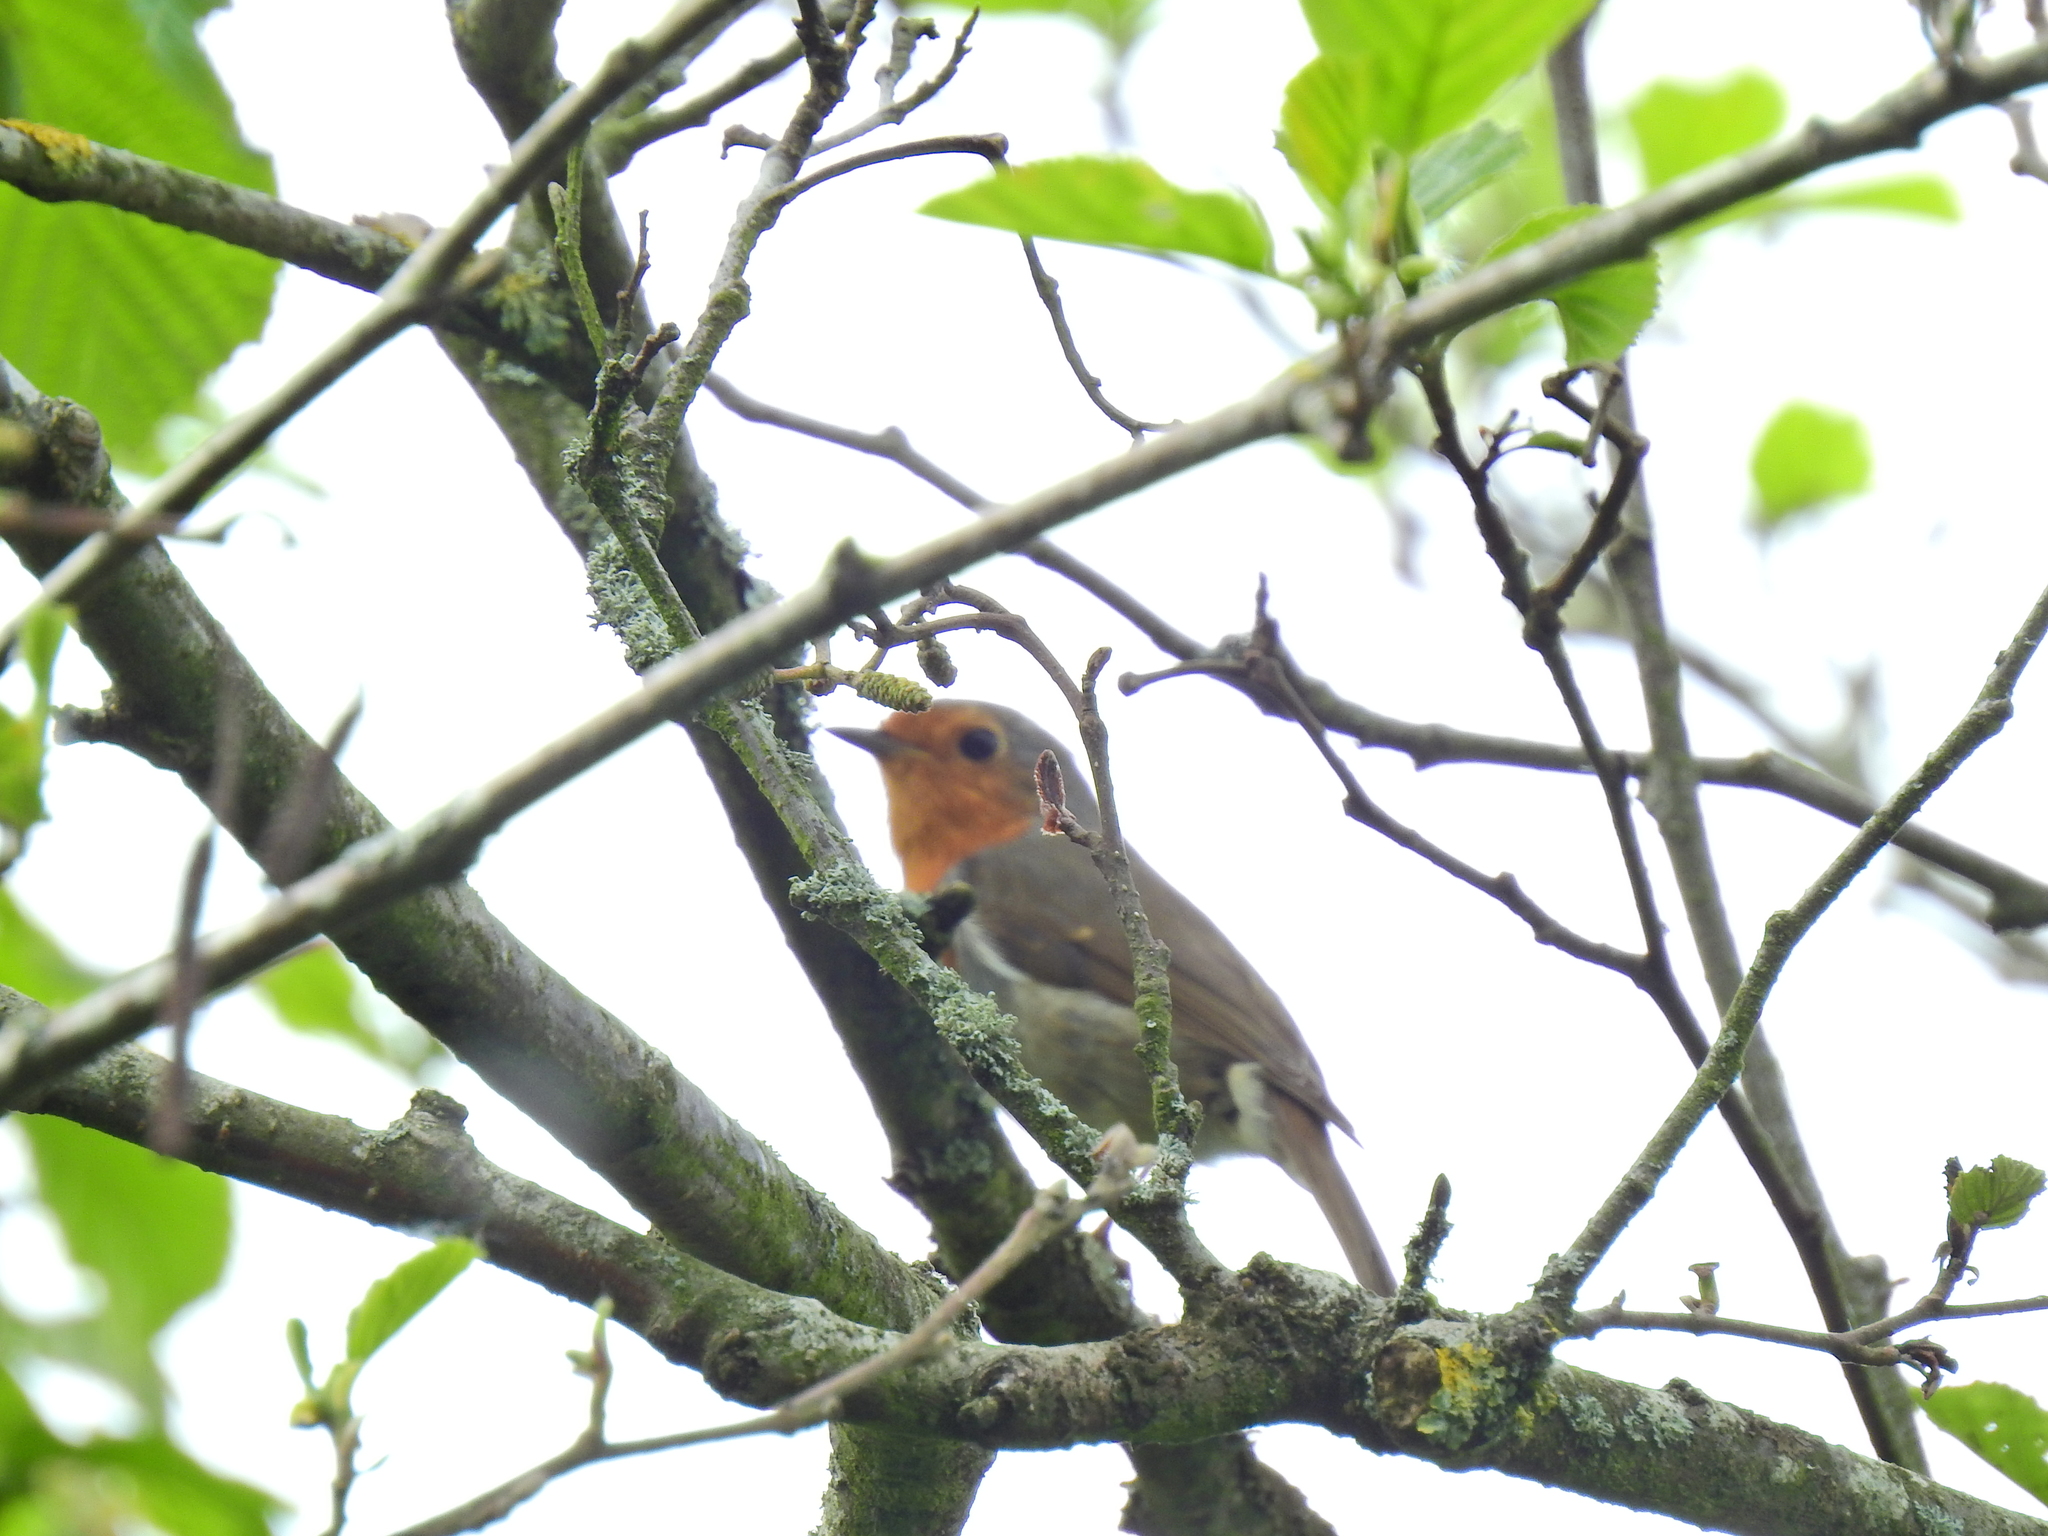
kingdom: Animalia
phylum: Chordata
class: Aves
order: Passeriformes
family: Muscicapidae
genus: Erithacus
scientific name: Erithacus rubecula
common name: European robin
